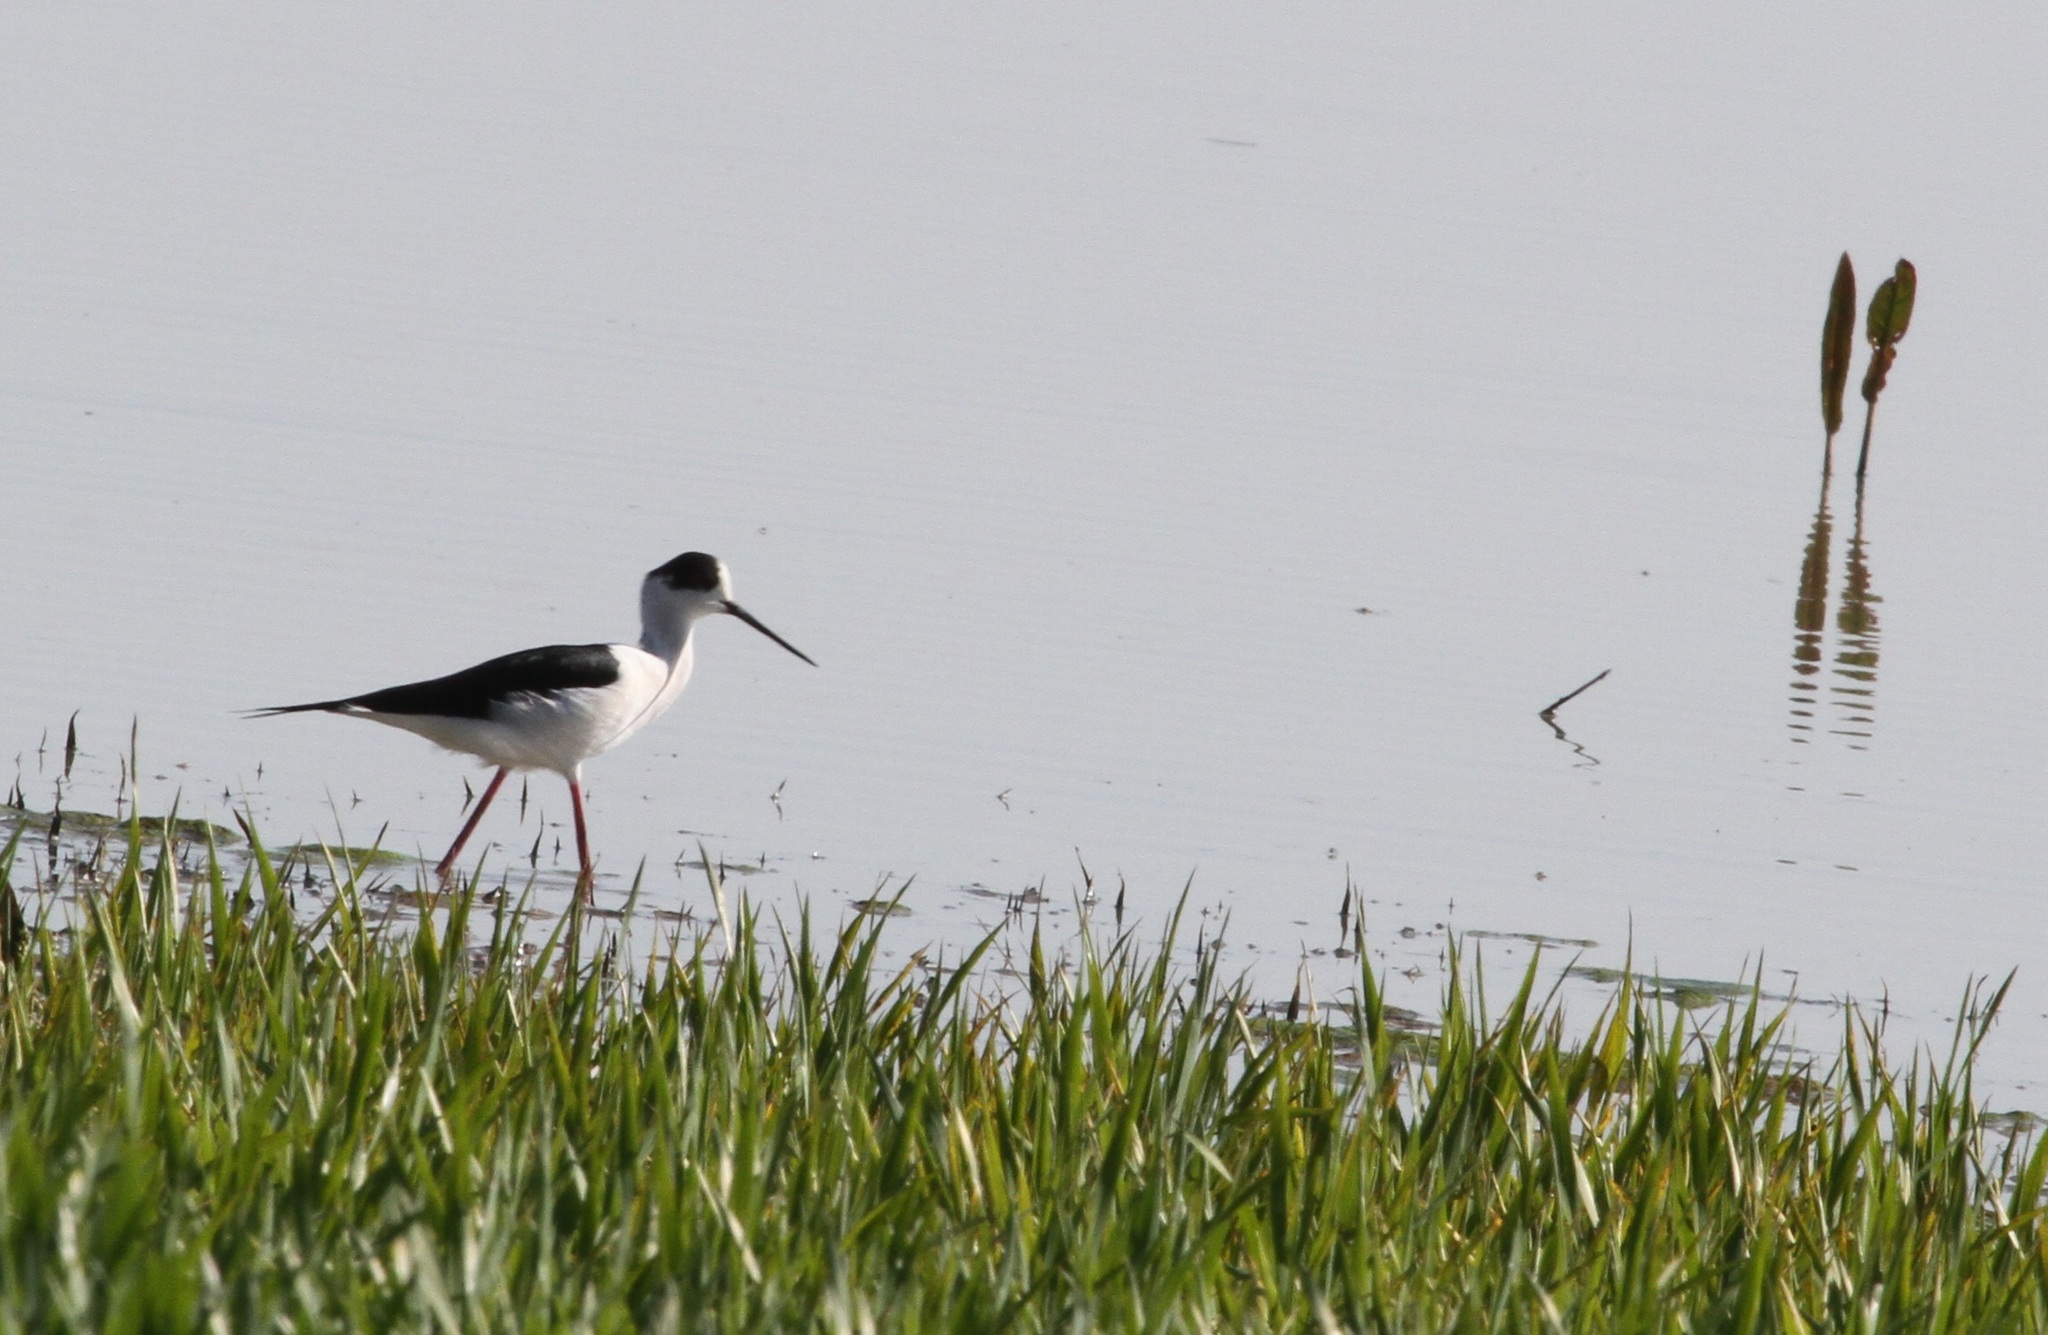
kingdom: Animalia
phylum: Chordata
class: Aves
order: Charadriiformes
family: Recurvirostridae
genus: Himantopus
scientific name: Himantopus himantopus
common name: Black-winged stilt
